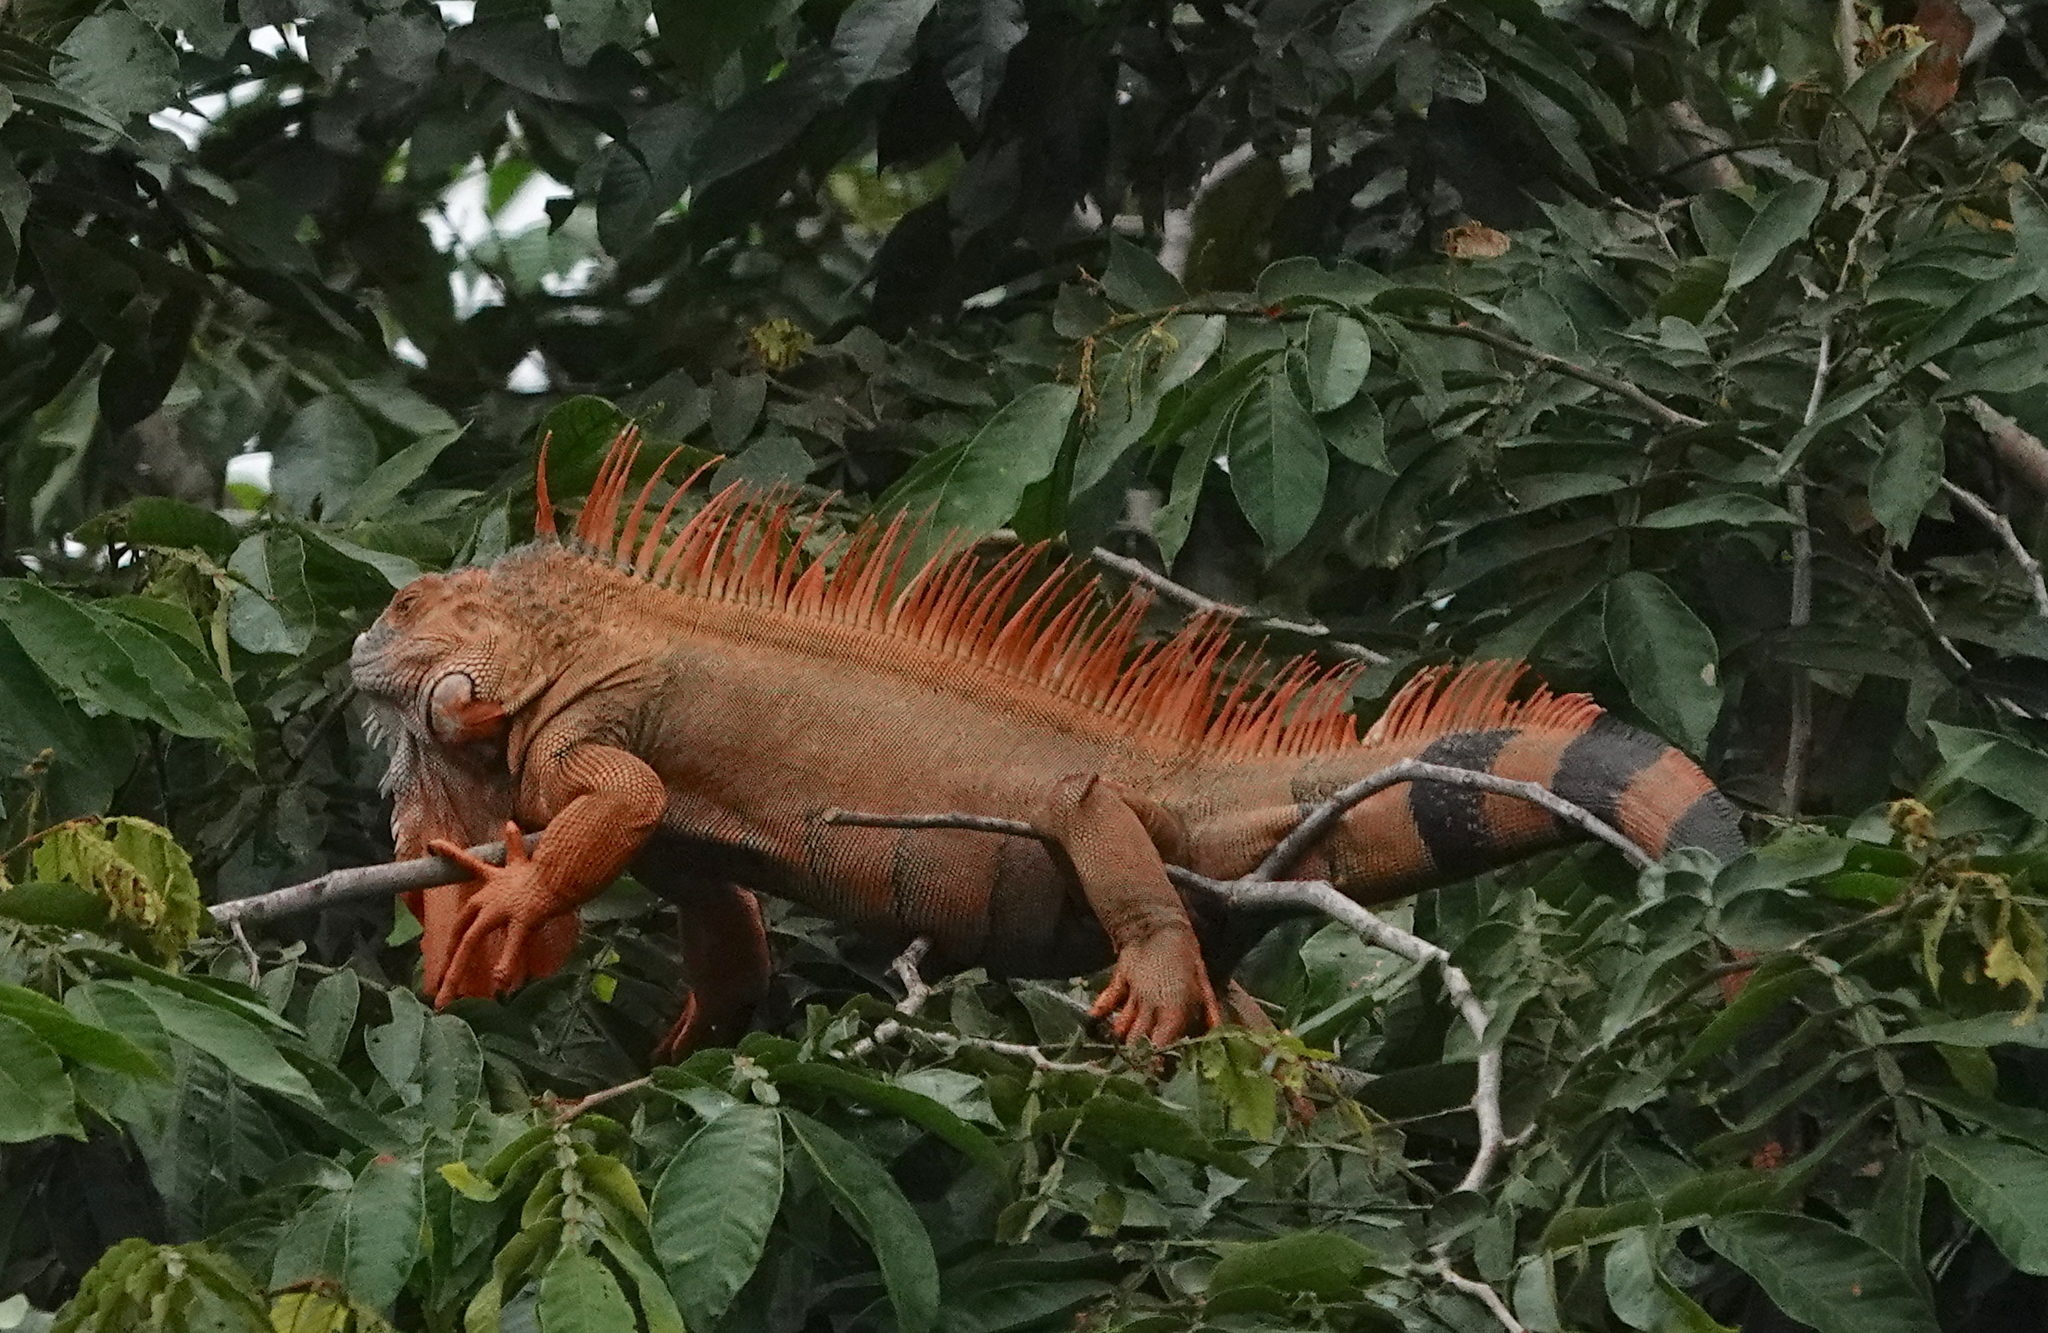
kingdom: Animalia
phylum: Chordata
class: Squamata
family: Iguanidae
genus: Iguana
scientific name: Iguana iguana
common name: Green iguana
